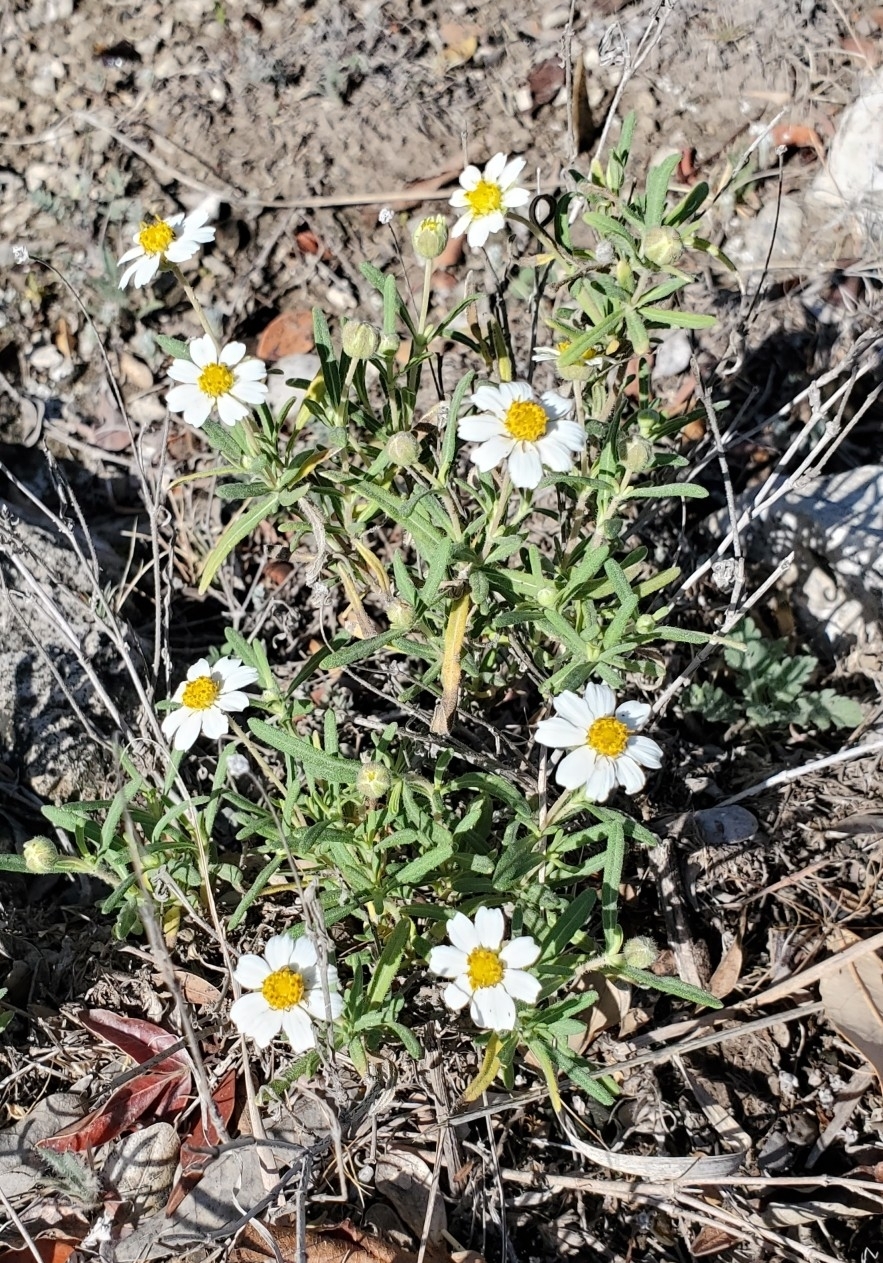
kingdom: Plantae
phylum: Tracheophyta
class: Magnoliopsida
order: Asterales
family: Asteraceae
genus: Melampodium
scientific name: Melampodium leucanthum
